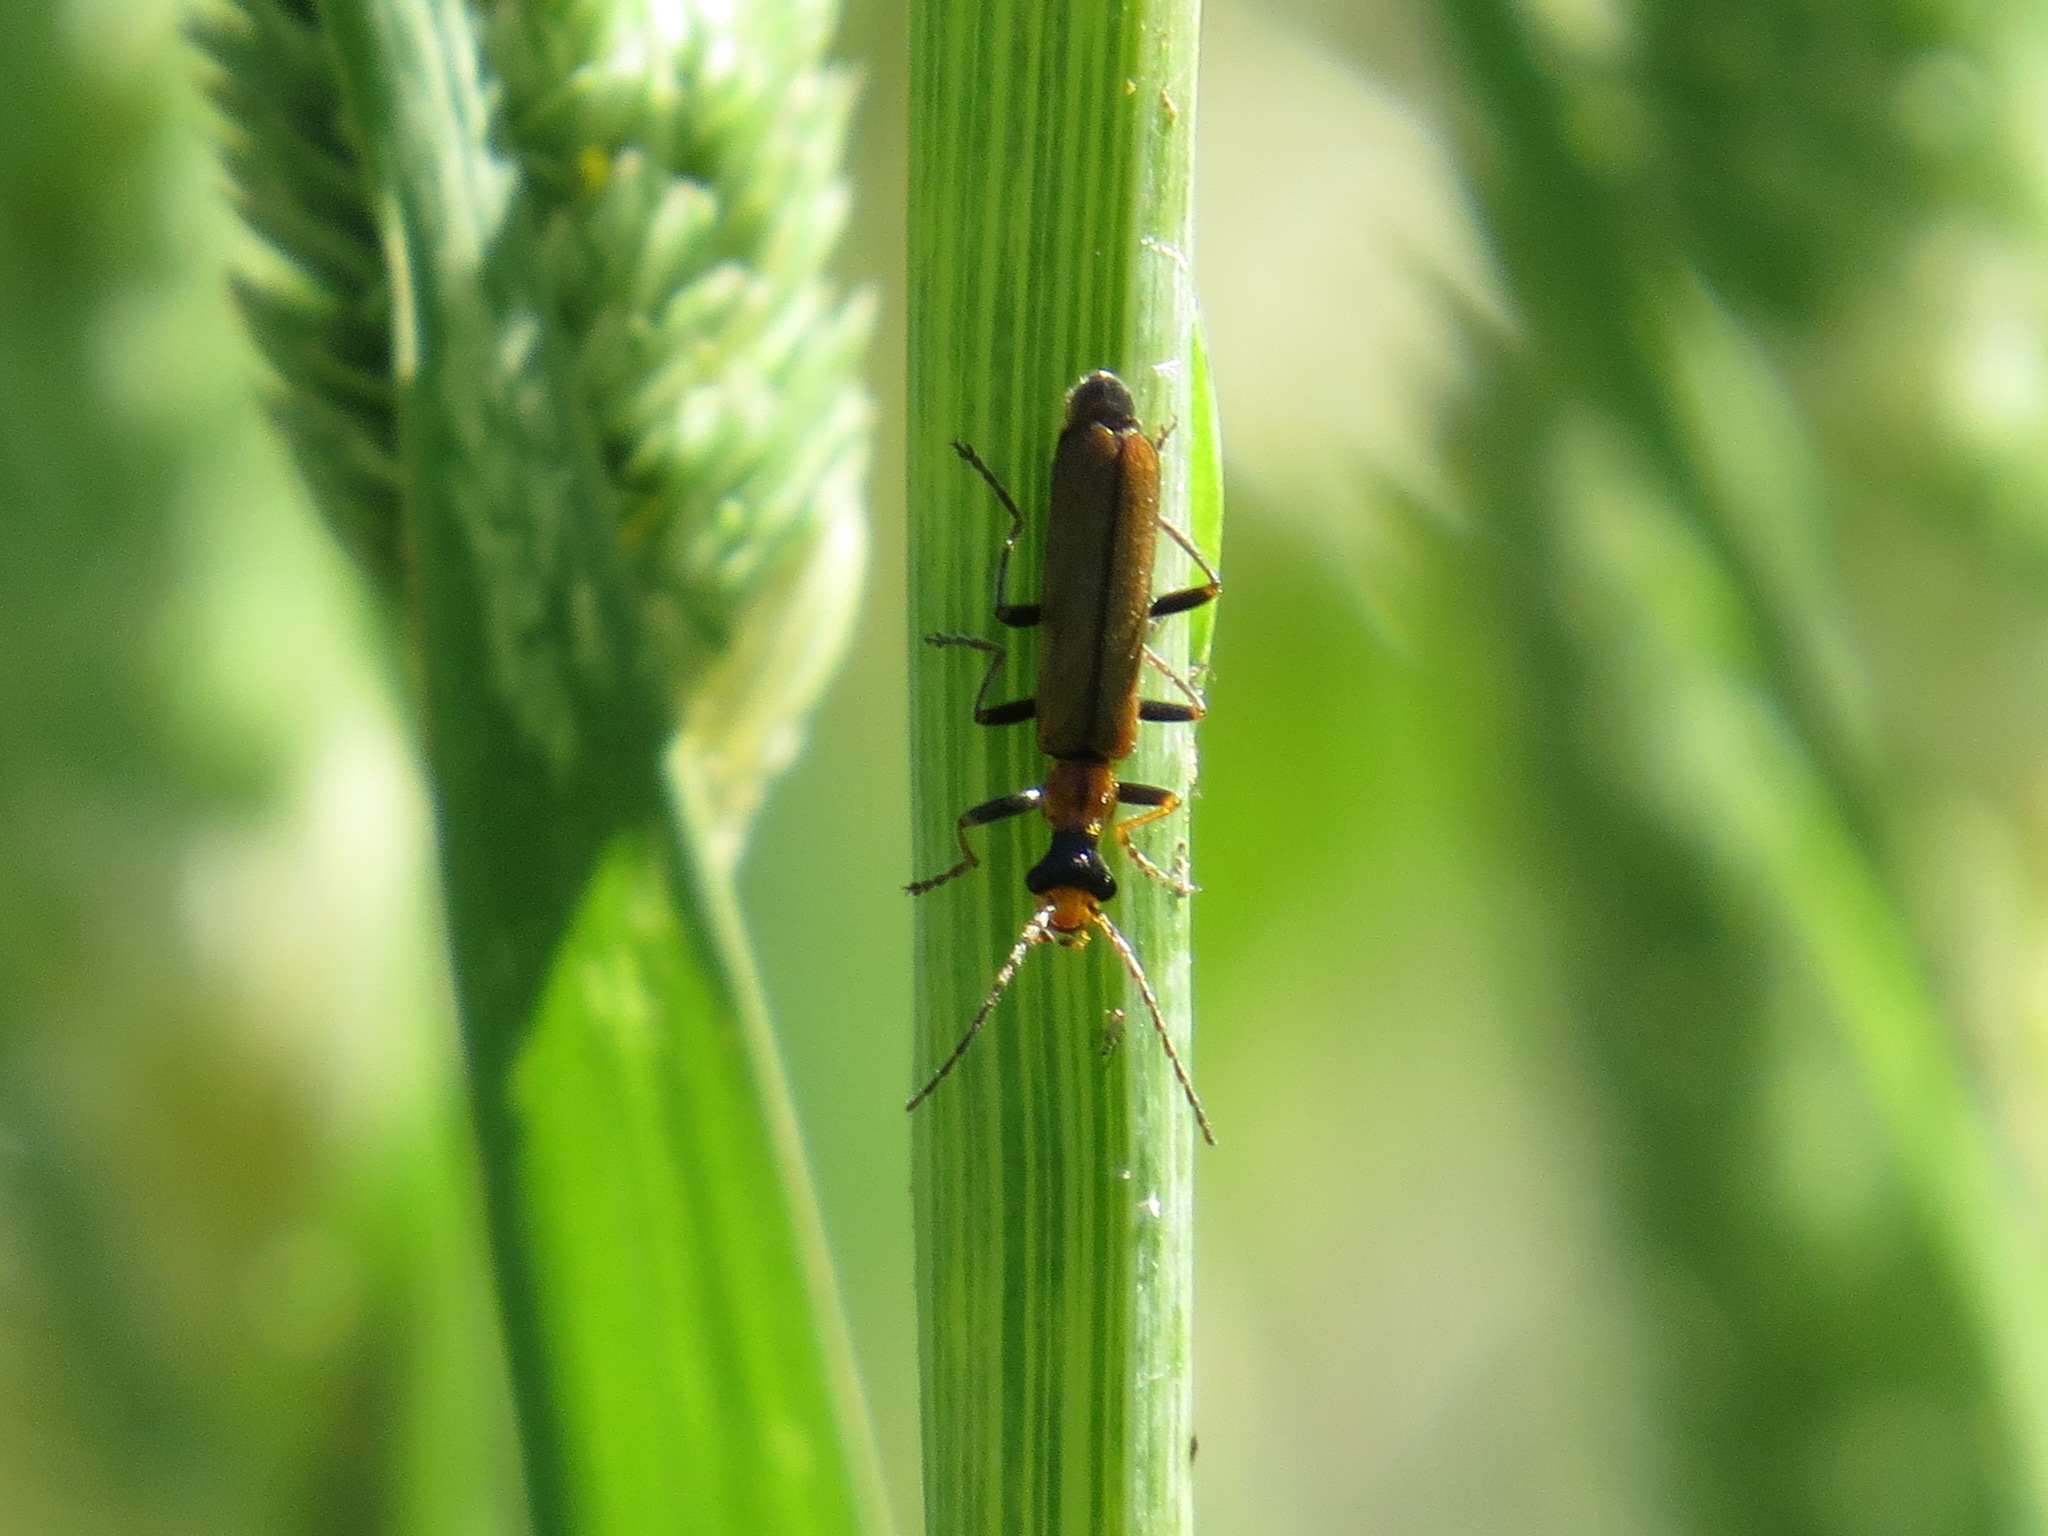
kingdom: Animalia
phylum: Arthropoda
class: Insecta
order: Coleoptera
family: Cantharidae
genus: Dichelotarsus
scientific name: Dichelotarsus cavicollis
